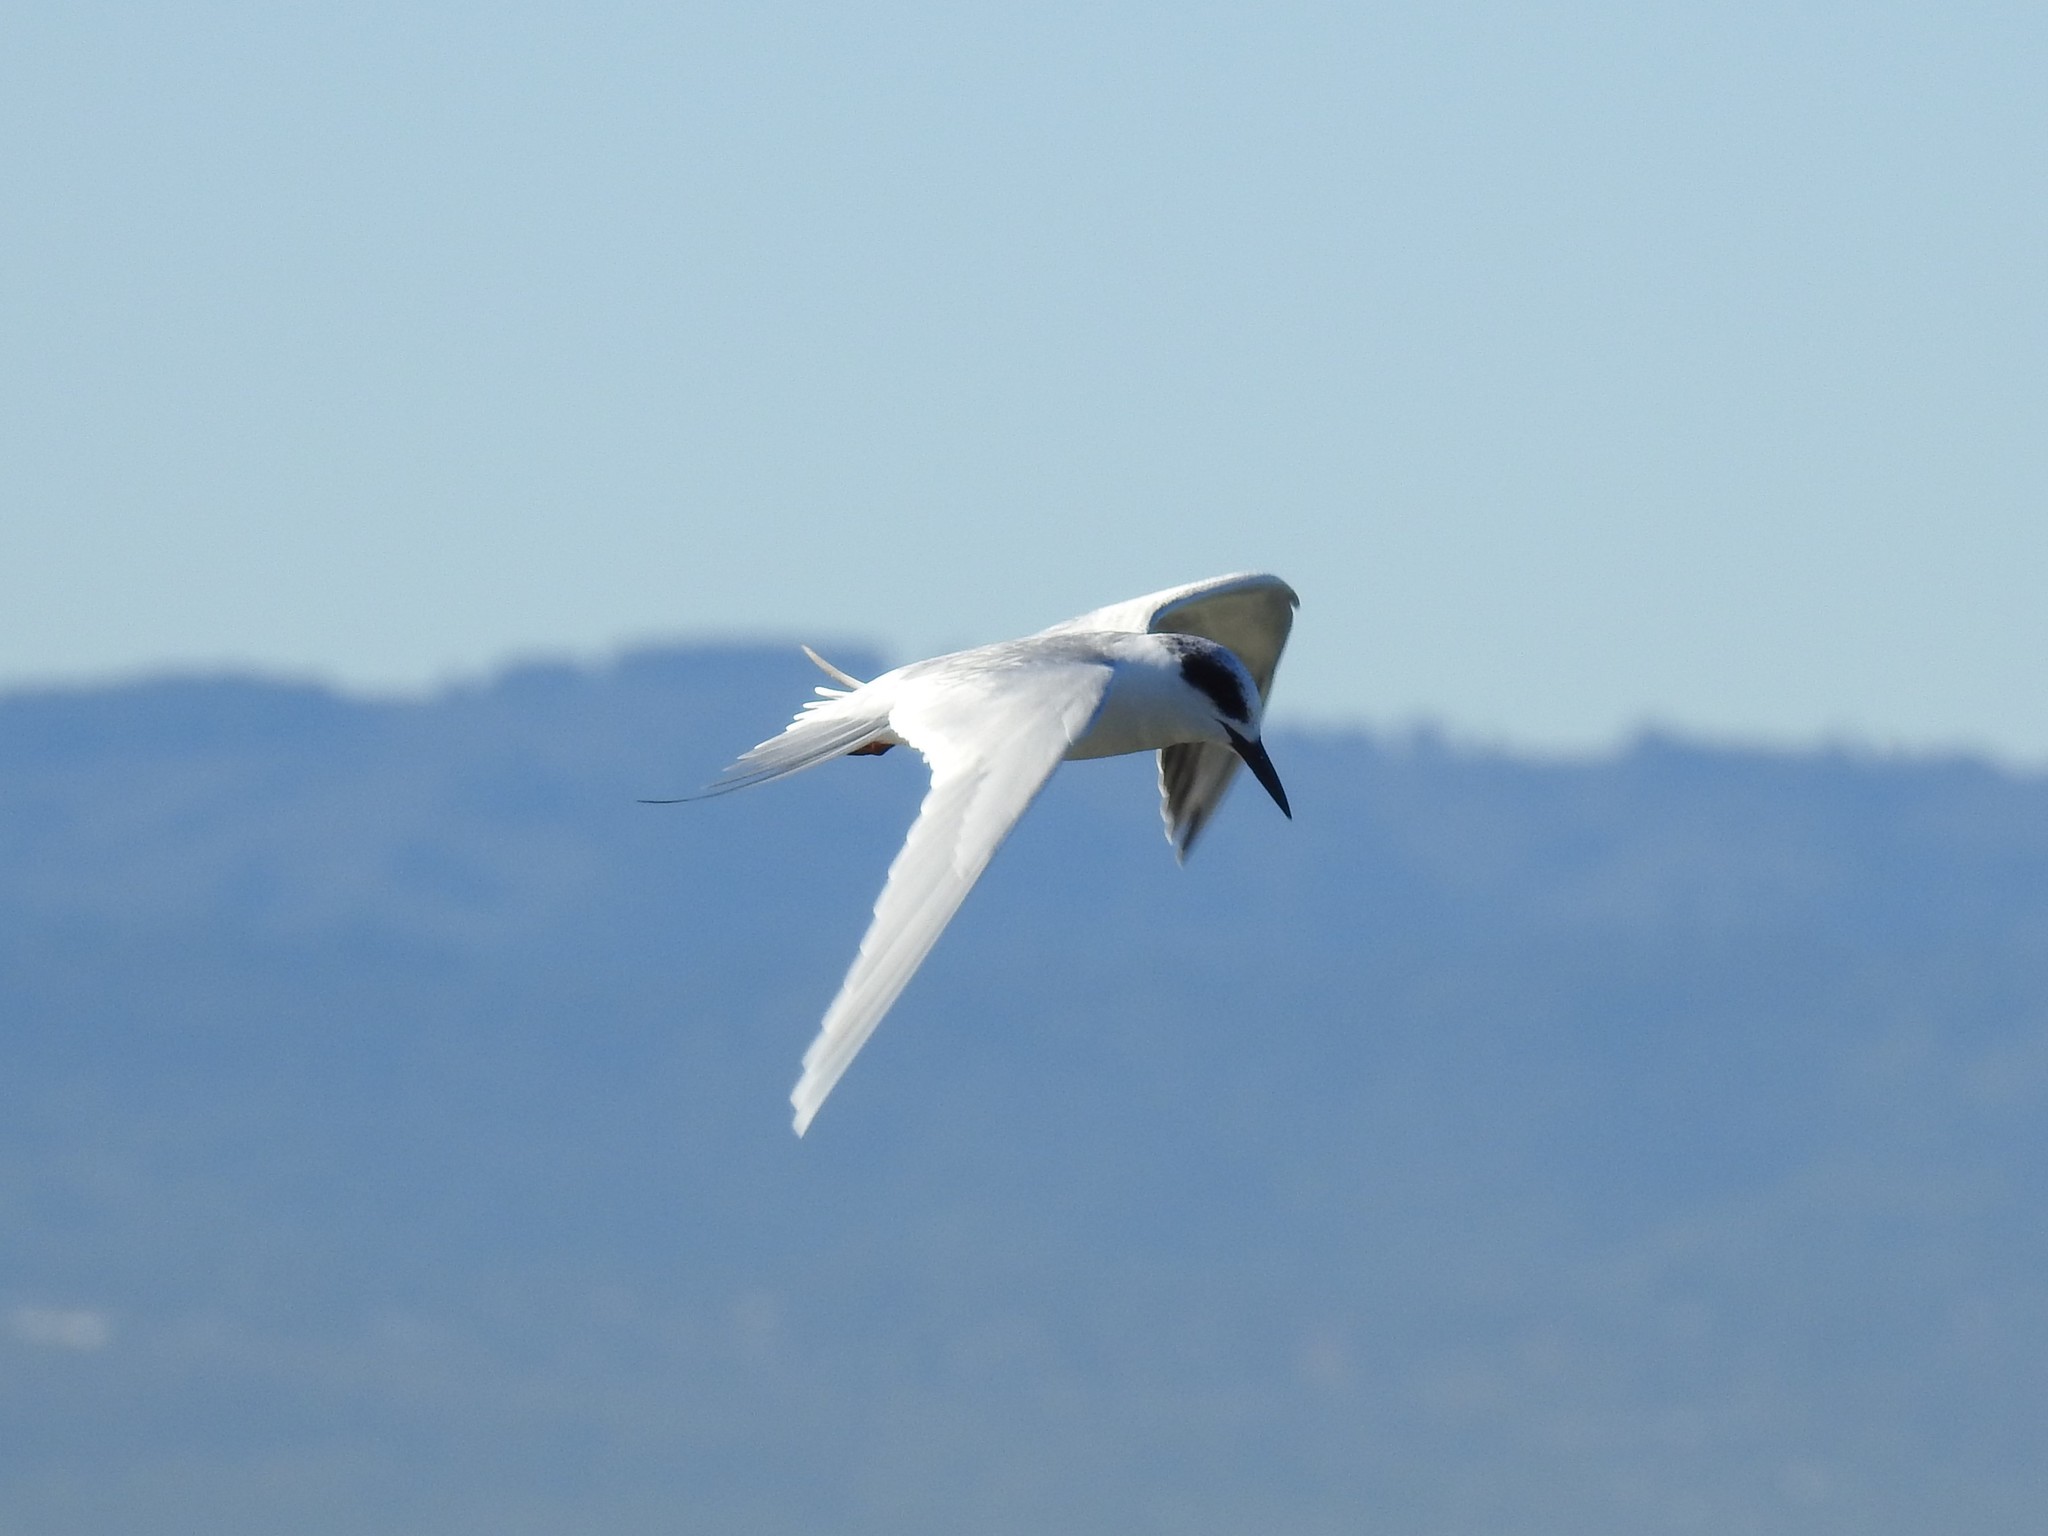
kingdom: Animalia
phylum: Chordata
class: Aves
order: Charadriiformes
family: Laridae
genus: Sterna
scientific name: Sterna forsteri
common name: Forster's tern
